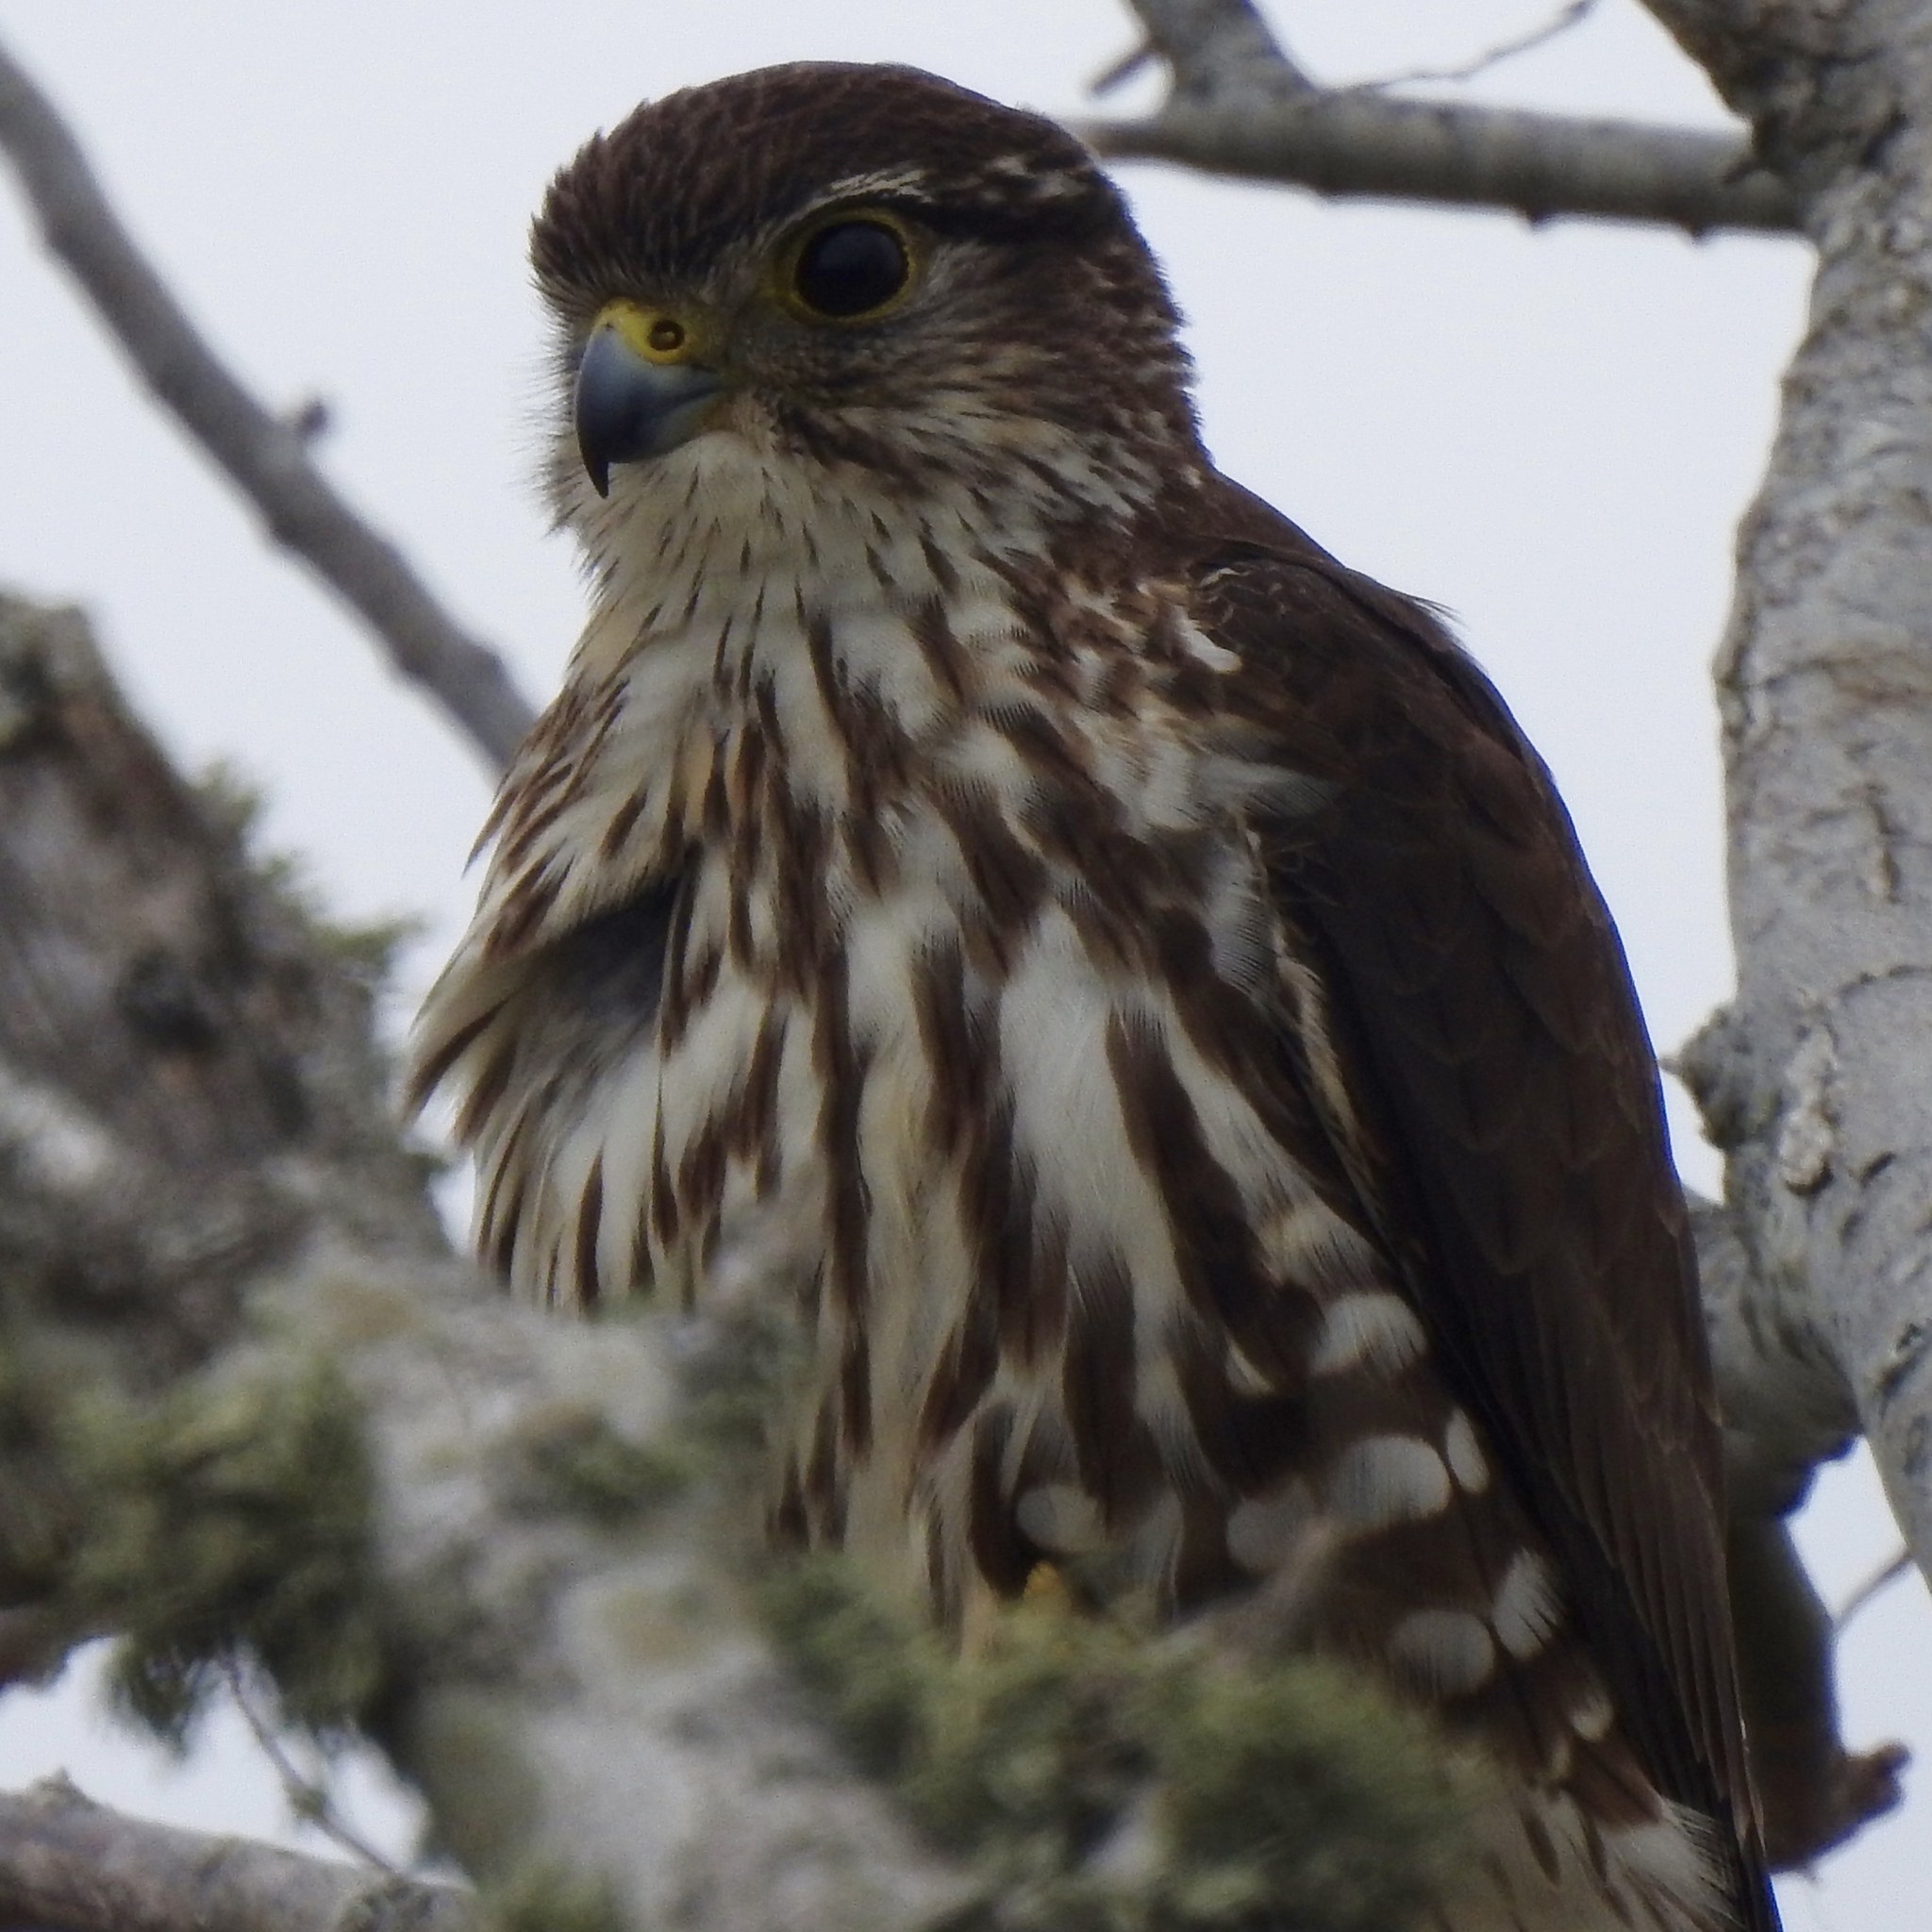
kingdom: Animalia
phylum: Chordata
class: Aves
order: Falconiformes
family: Falconidae
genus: Falco
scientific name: Falco columbarius
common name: Merlin
